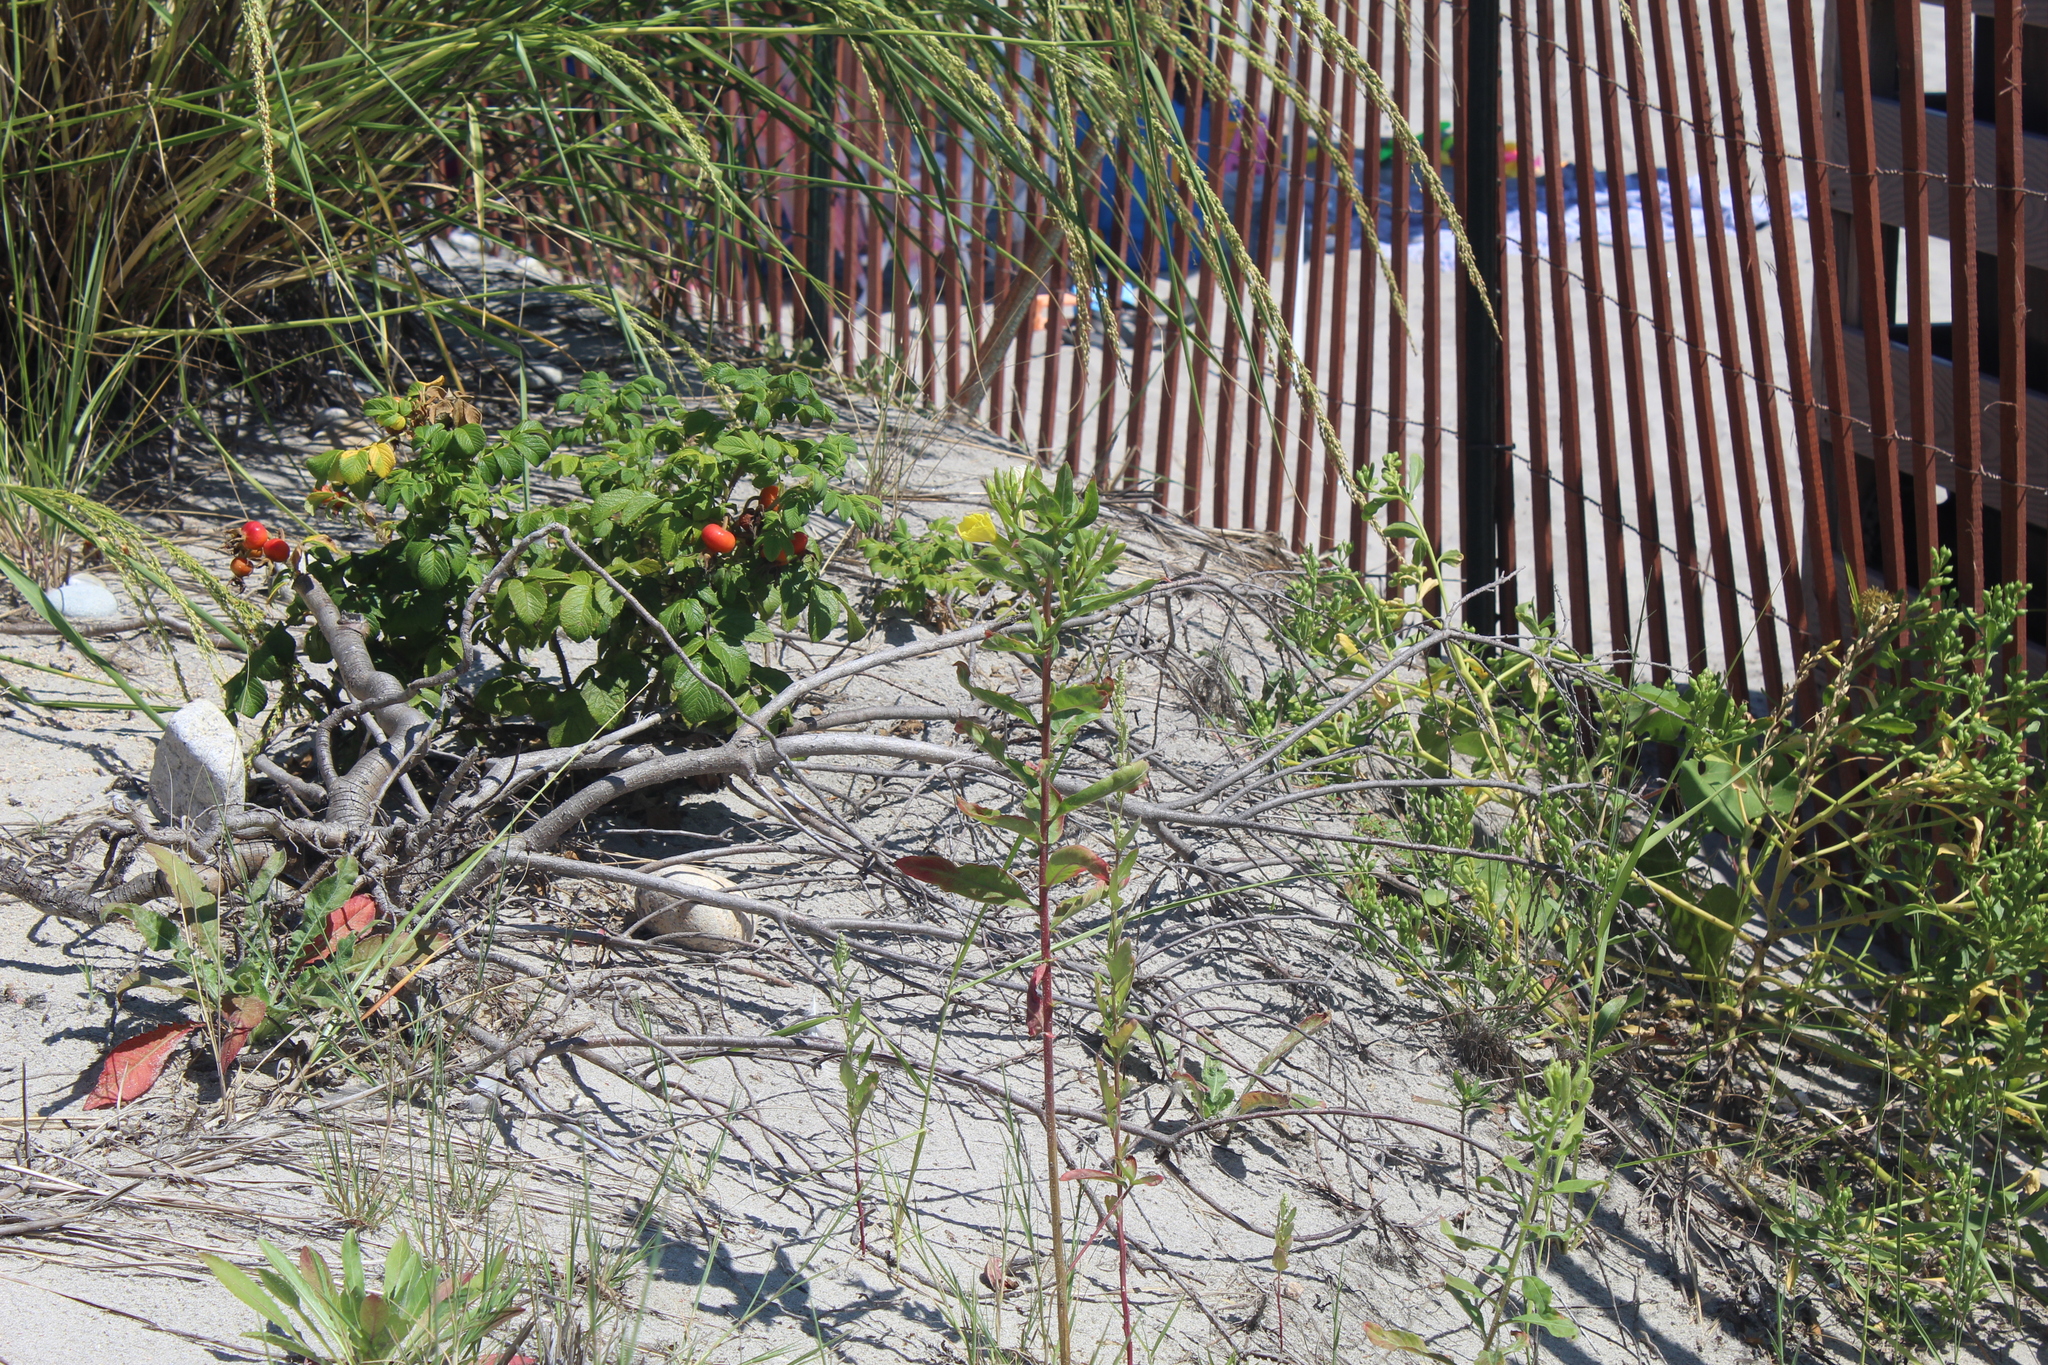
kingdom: Plantae
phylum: Tracheophyta
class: Magnoliopsida
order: Myrtales
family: Onagraceae
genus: Oenothera
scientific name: Oenothera biennis
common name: Common evening-primrose
